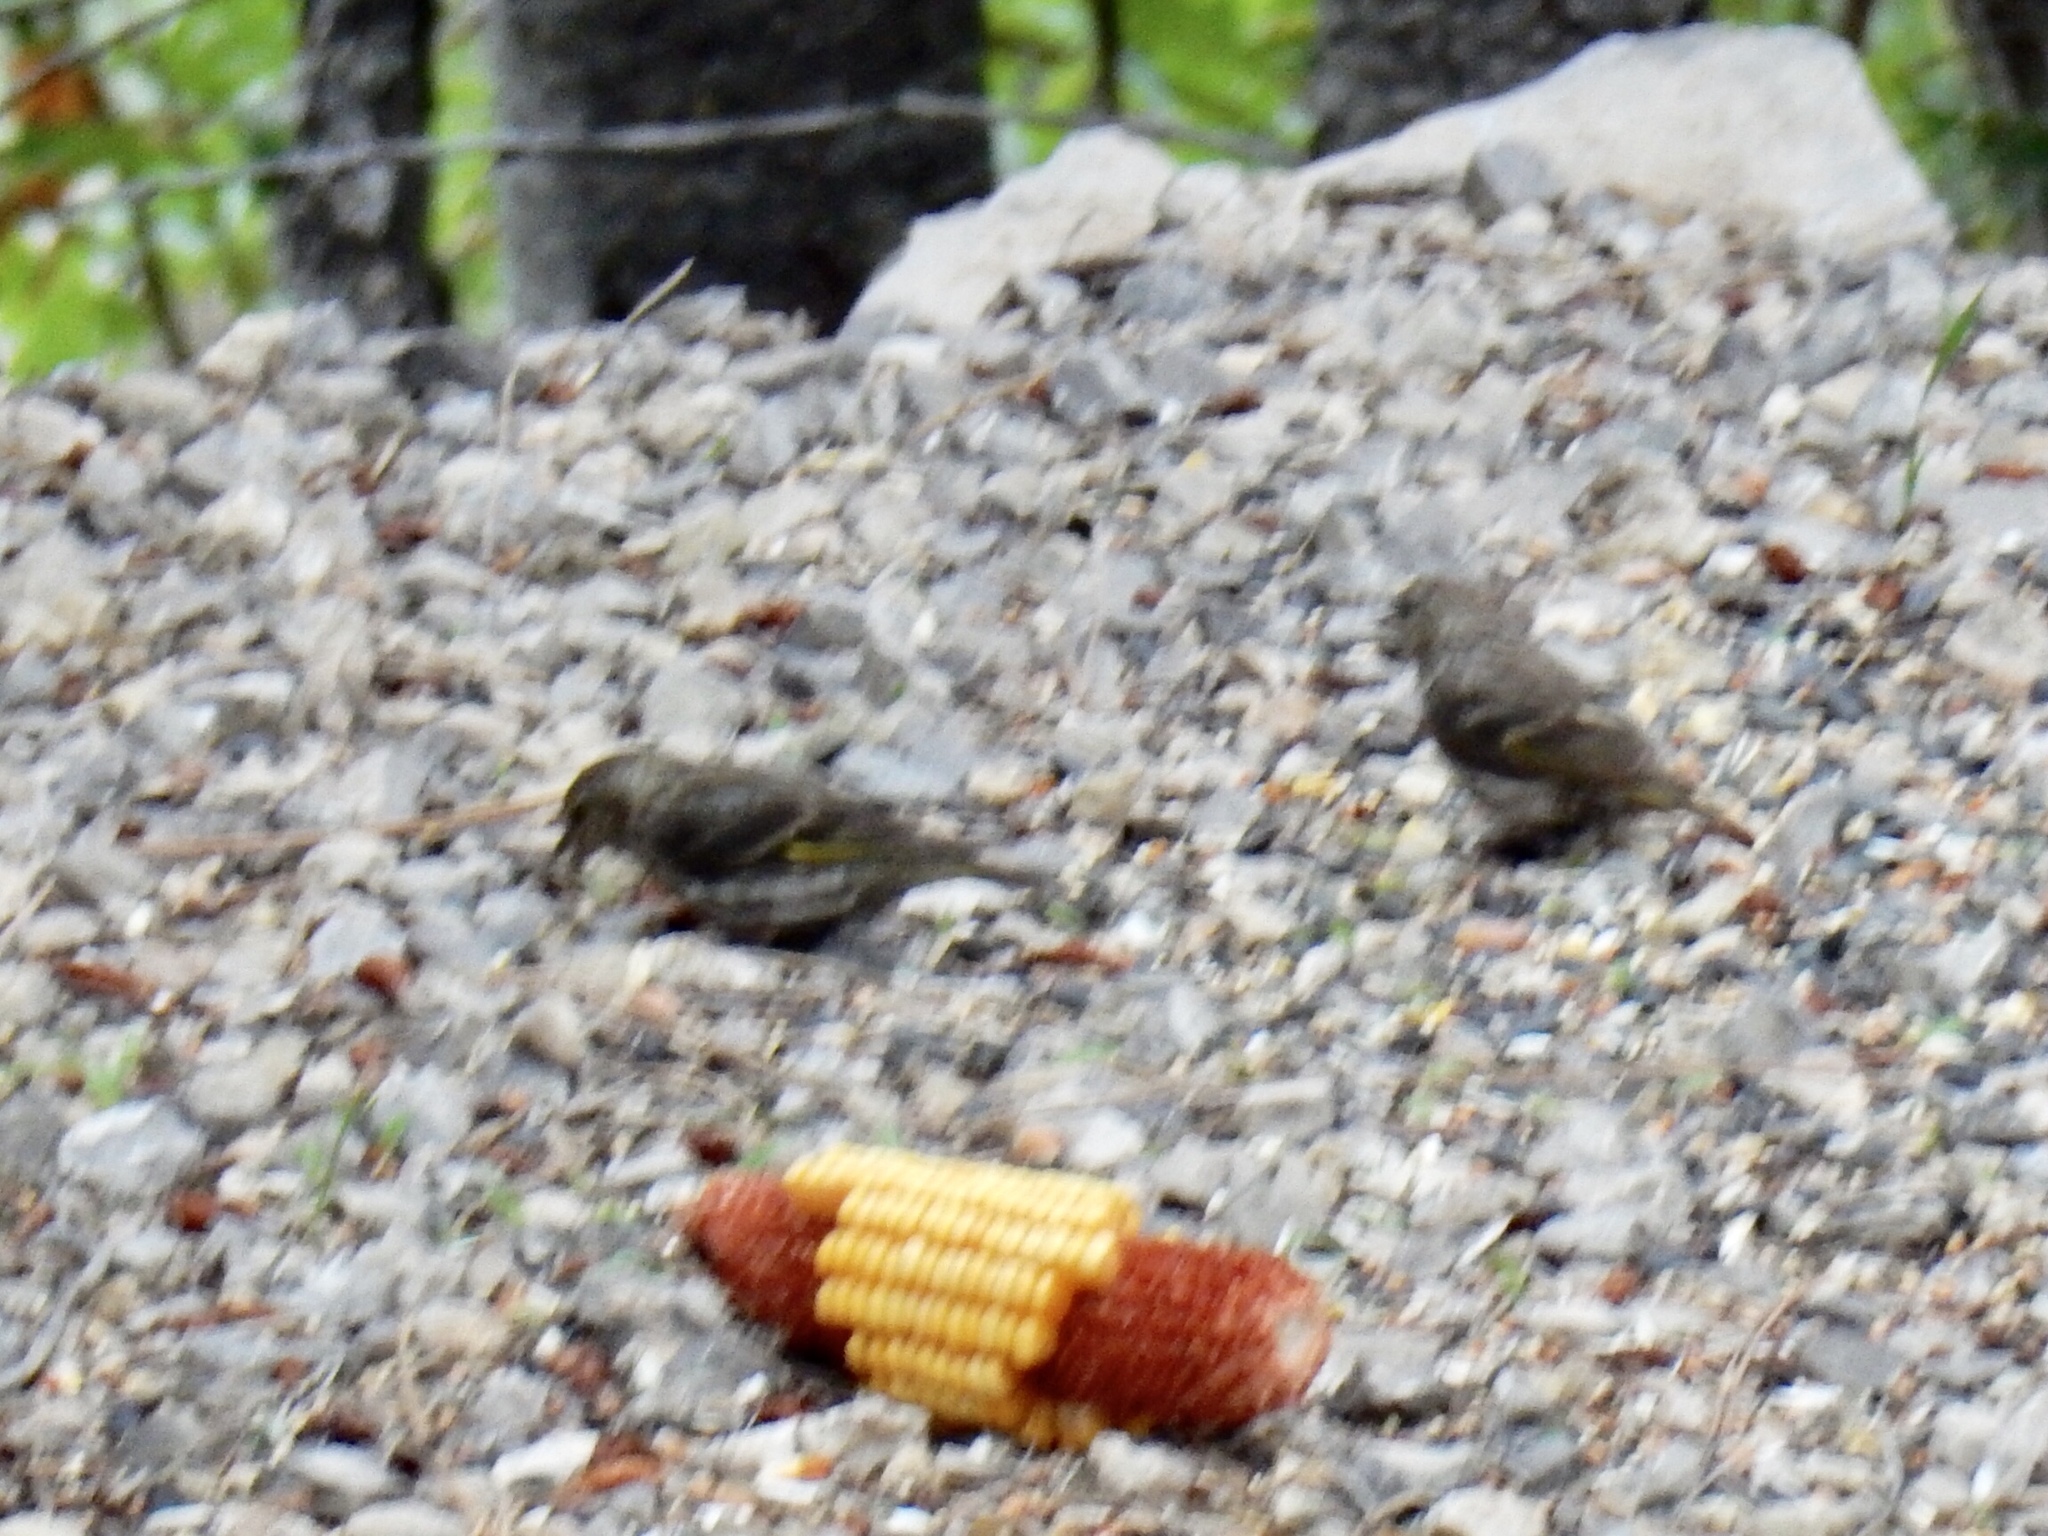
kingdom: Animalia
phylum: Chordata
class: Aves
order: Passeriformes
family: Fringillidae
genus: Spinus
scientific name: Spinus pinus
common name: Pine siskin
